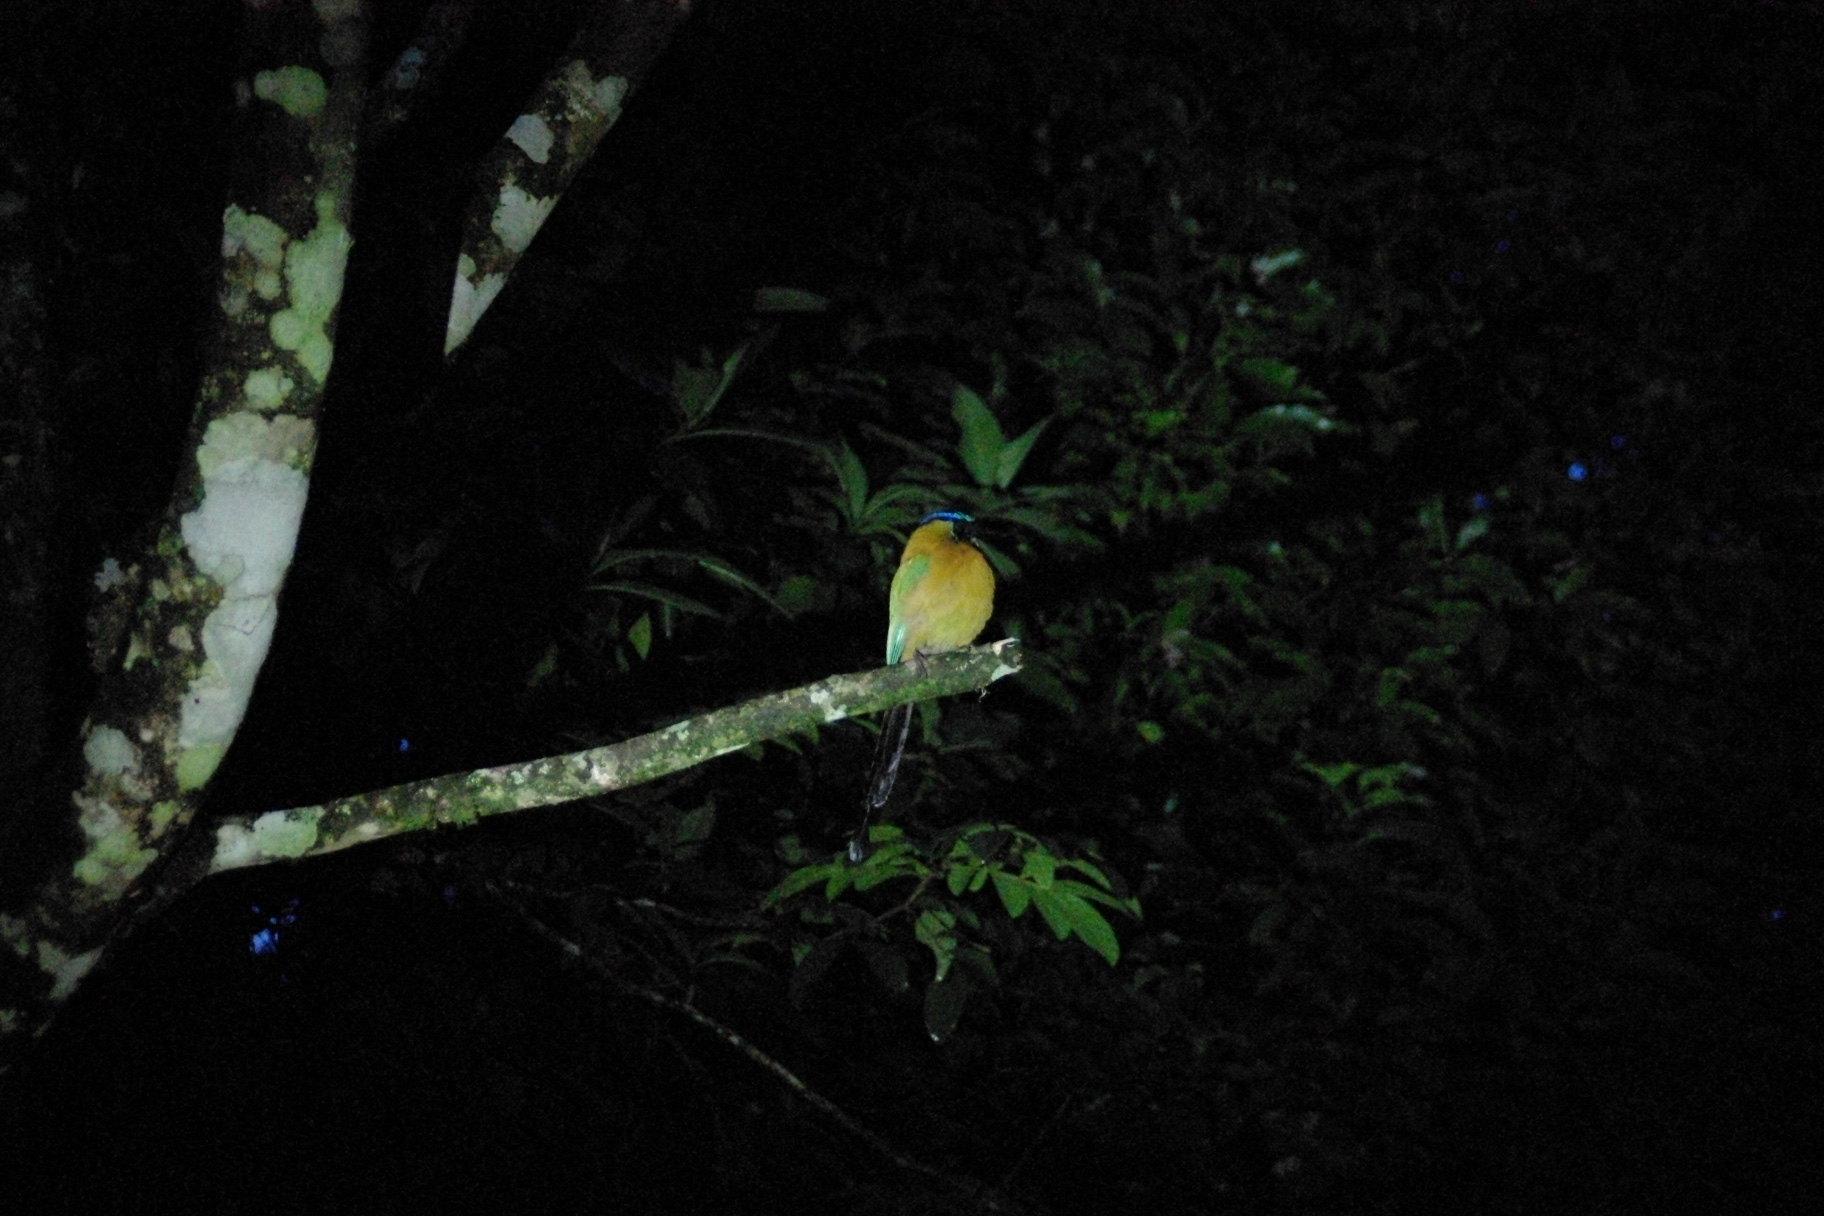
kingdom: Animalia
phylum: Chordata
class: Aves
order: Coraciiformes
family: Momotidae
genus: Momotus
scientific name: Momotus lessonii
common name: Lesson's motmot
